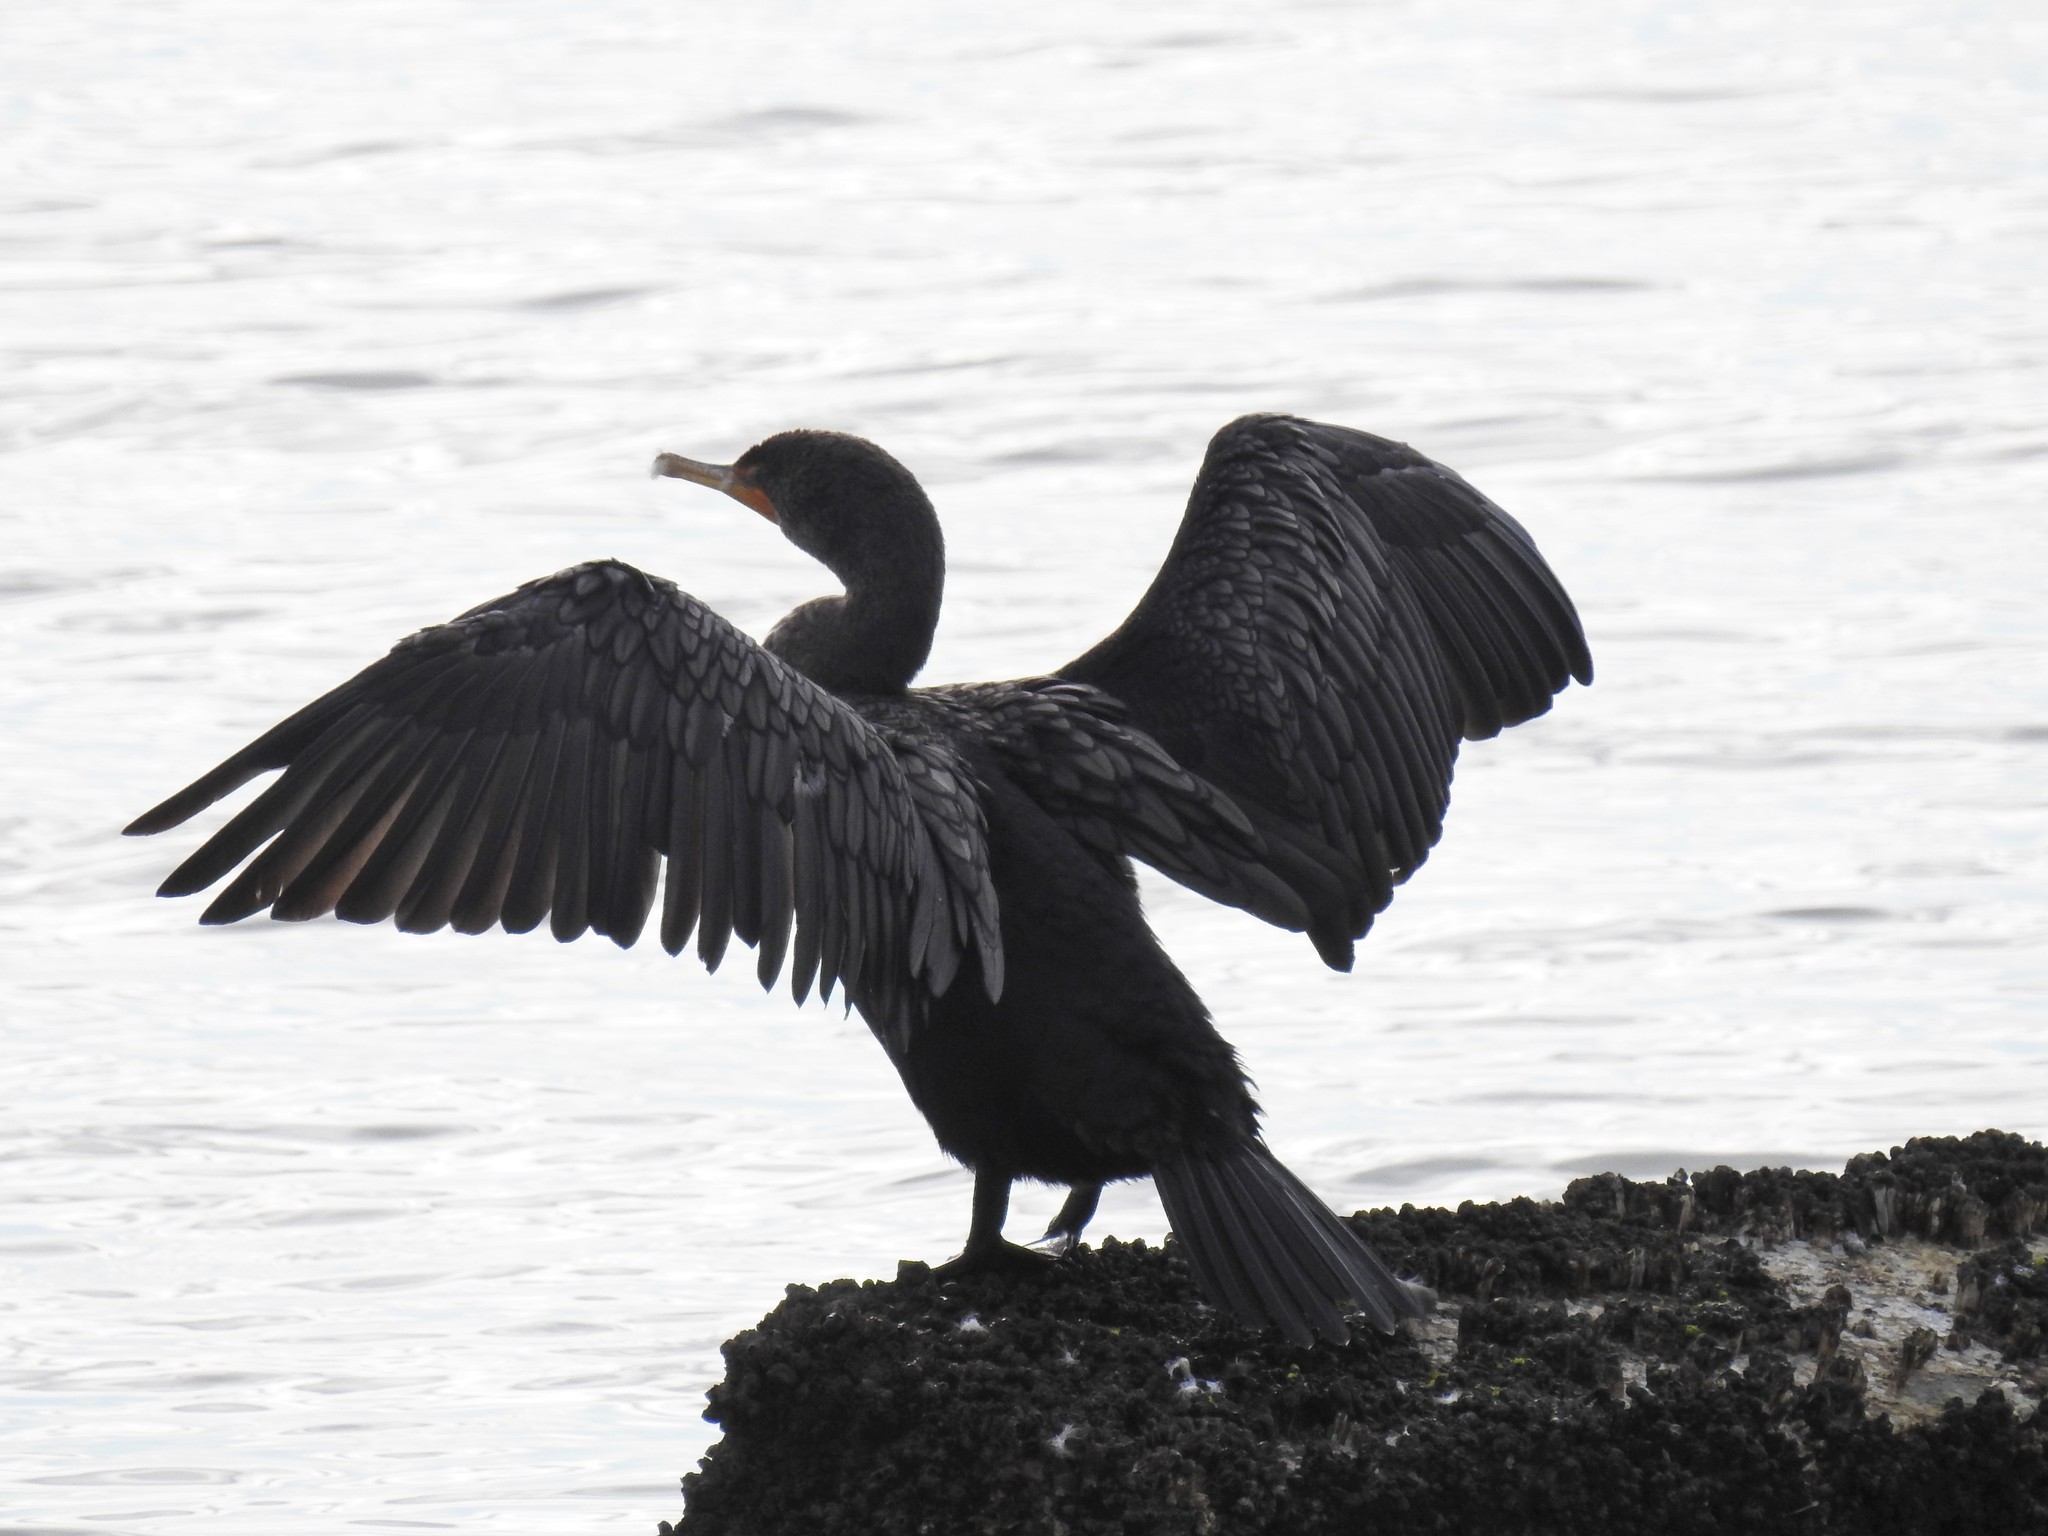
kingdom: Animalia
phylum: Chordata
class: Aves
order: Suliformes
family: Phalacrocoracidae
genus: Phalacrocorax
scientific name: Phalacrocorax auritus
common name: Double-crested cormorant
